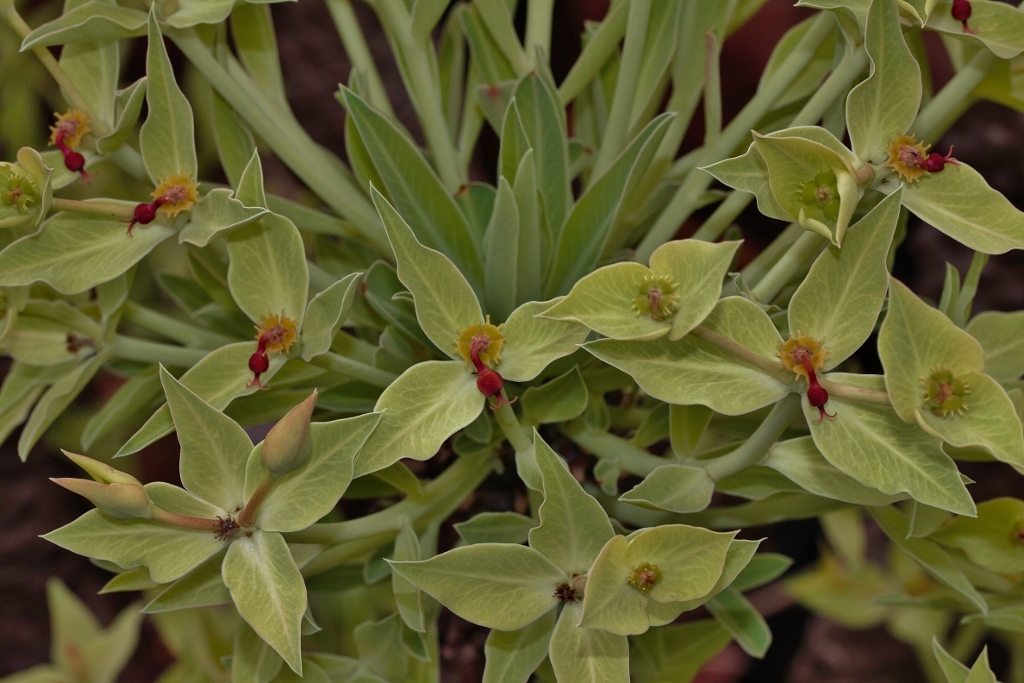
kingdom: Plantae
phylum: Tracheophyta
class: Magnoliopsida
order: Malpighiales
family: Euphorbiaceae
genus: Euphorbia
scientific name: Euphorbia wildii
